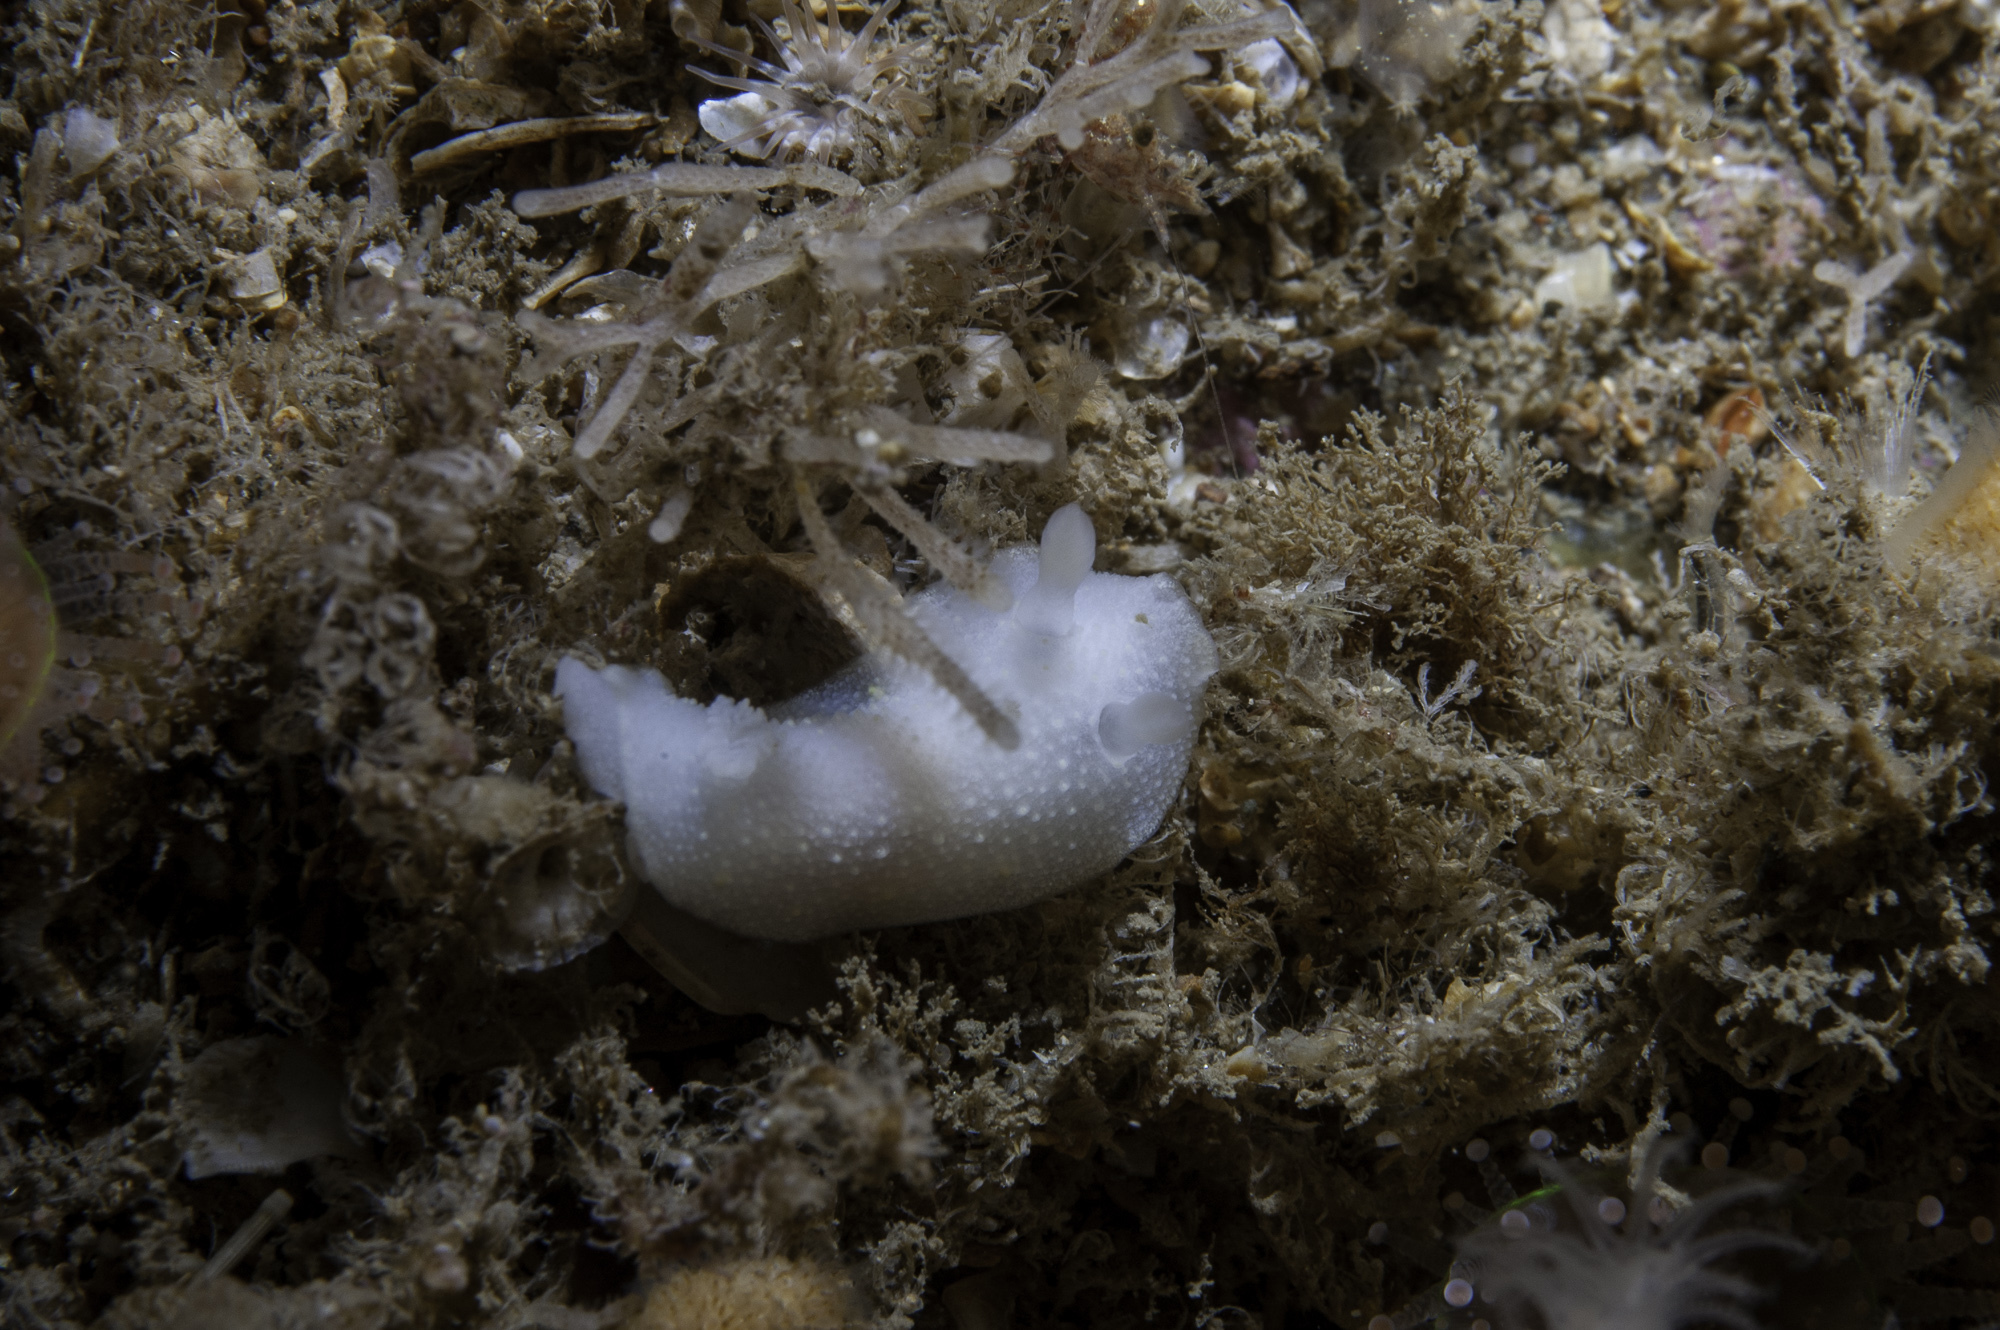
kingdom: Animalia
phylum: Mollusca
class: Gastropoda
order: Nudibranchia
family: Cadlinidae
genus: Cadlina
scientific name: Cadlina laevis
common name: White atlantic cadlina
